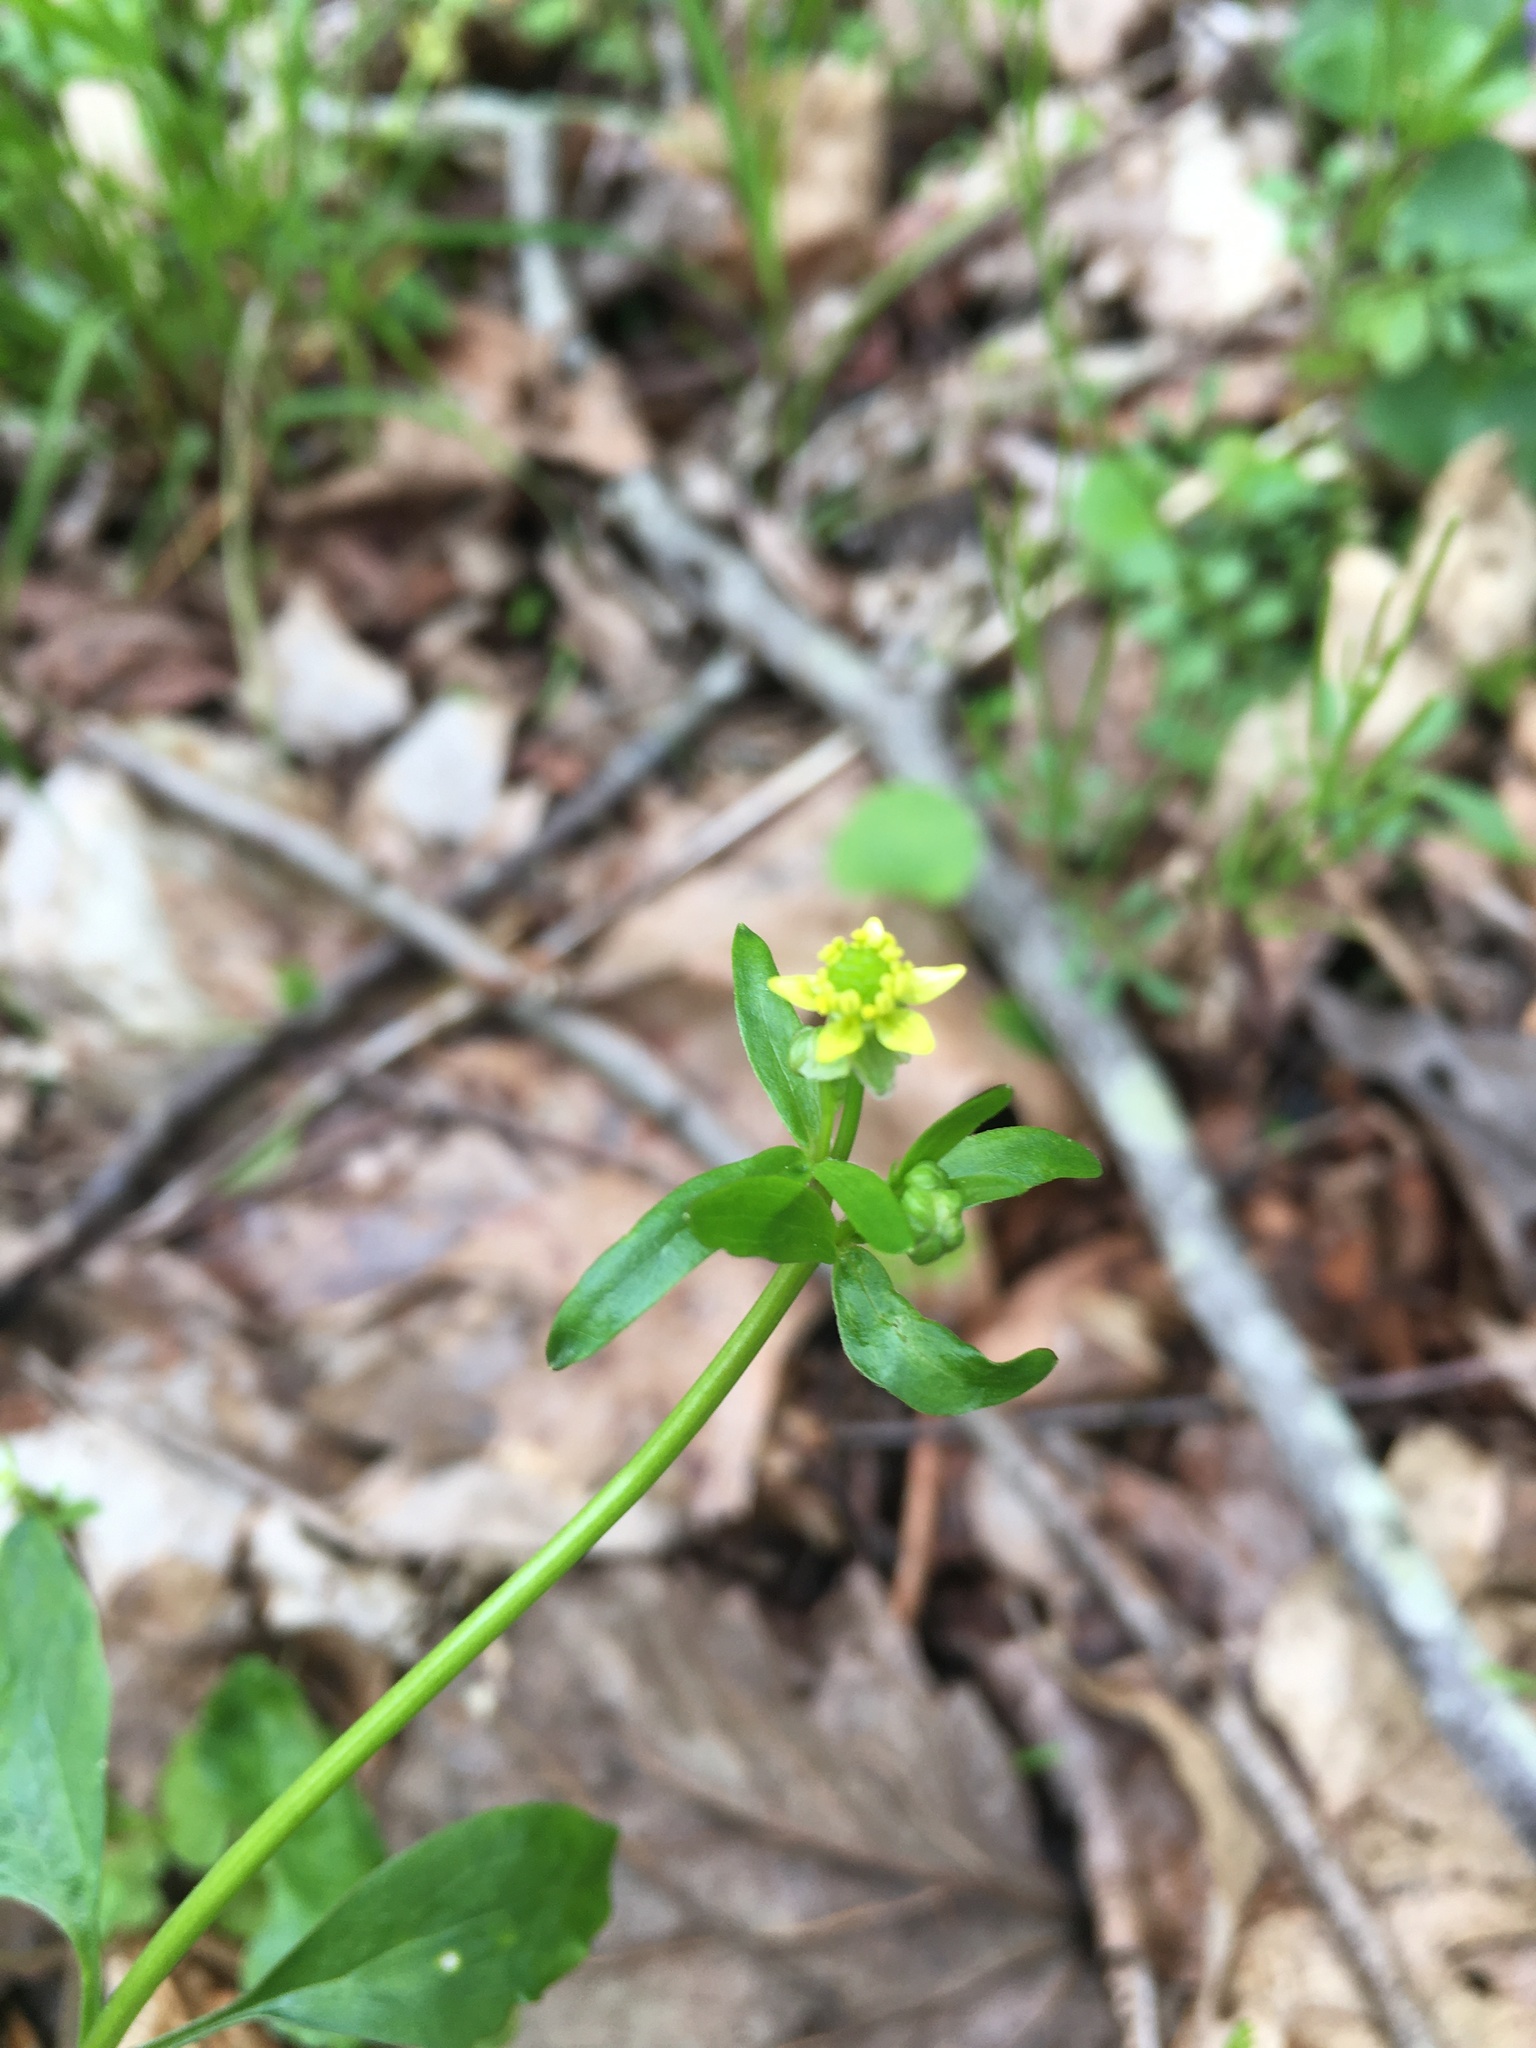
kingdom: Plantae
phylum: Tracheophyta
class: Magnoliopsida
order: Ranunculales
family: Ranunculaceae
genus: Ranunculus
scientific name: Ranunculus abortivus
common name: Early wood buttercup
